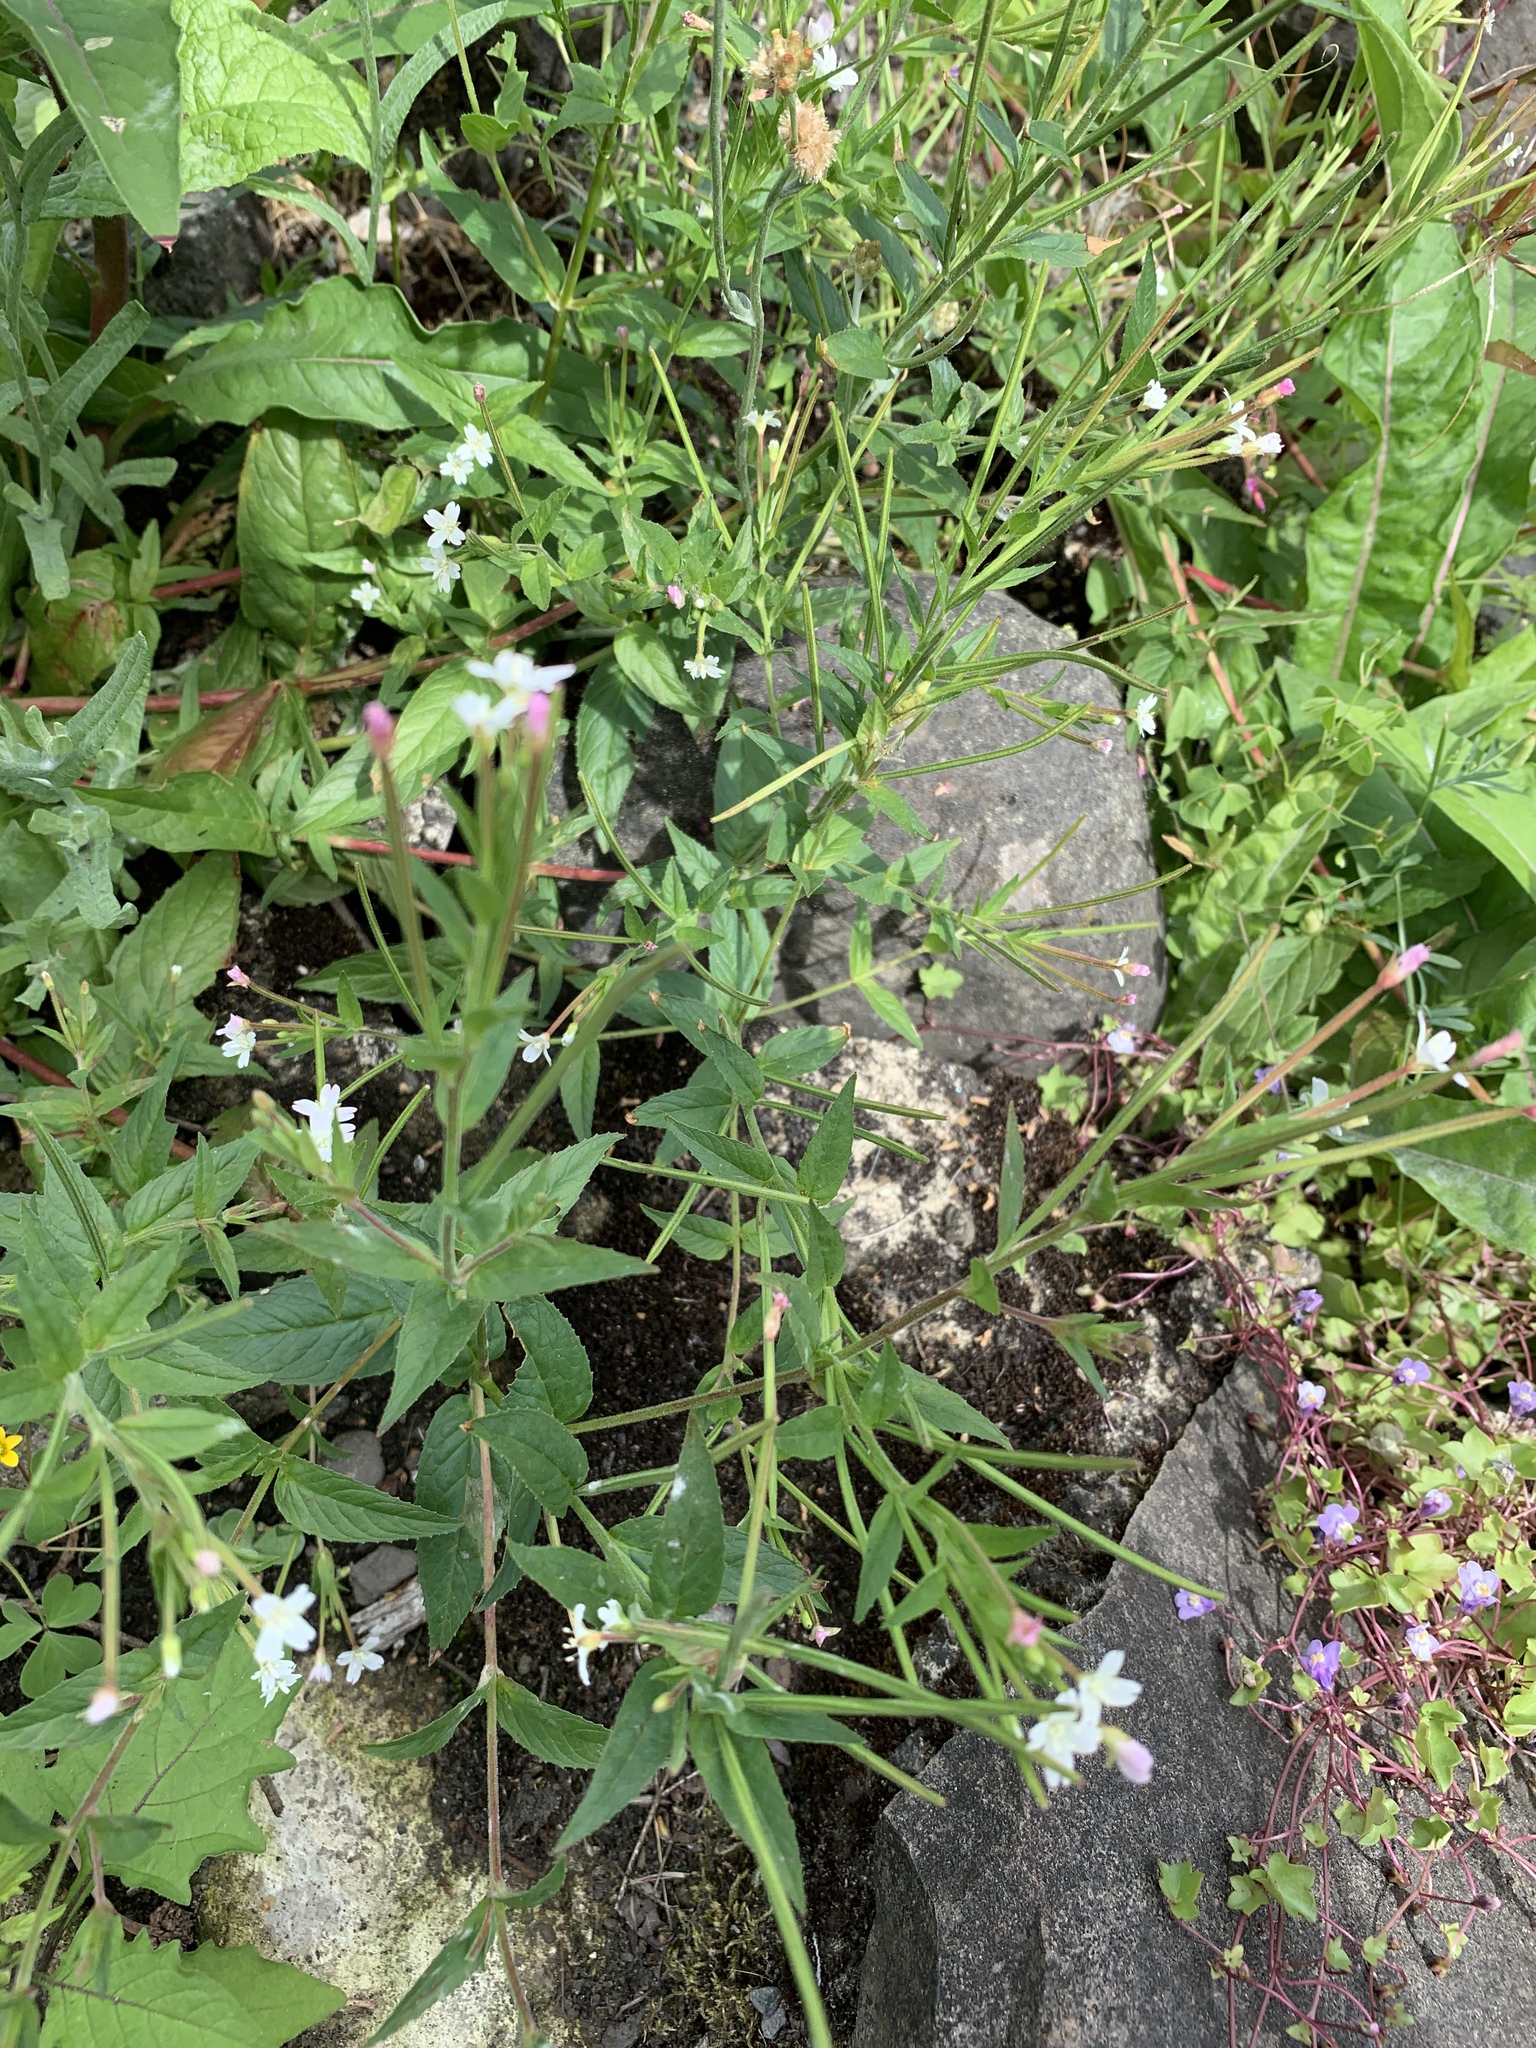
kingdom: Plantae
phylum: Tracheophyta
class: Magnoliopsida
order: Myrtales
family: Onagraceae
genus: Epilobium
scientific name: Epilobium ciliatum
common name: American willowherb
